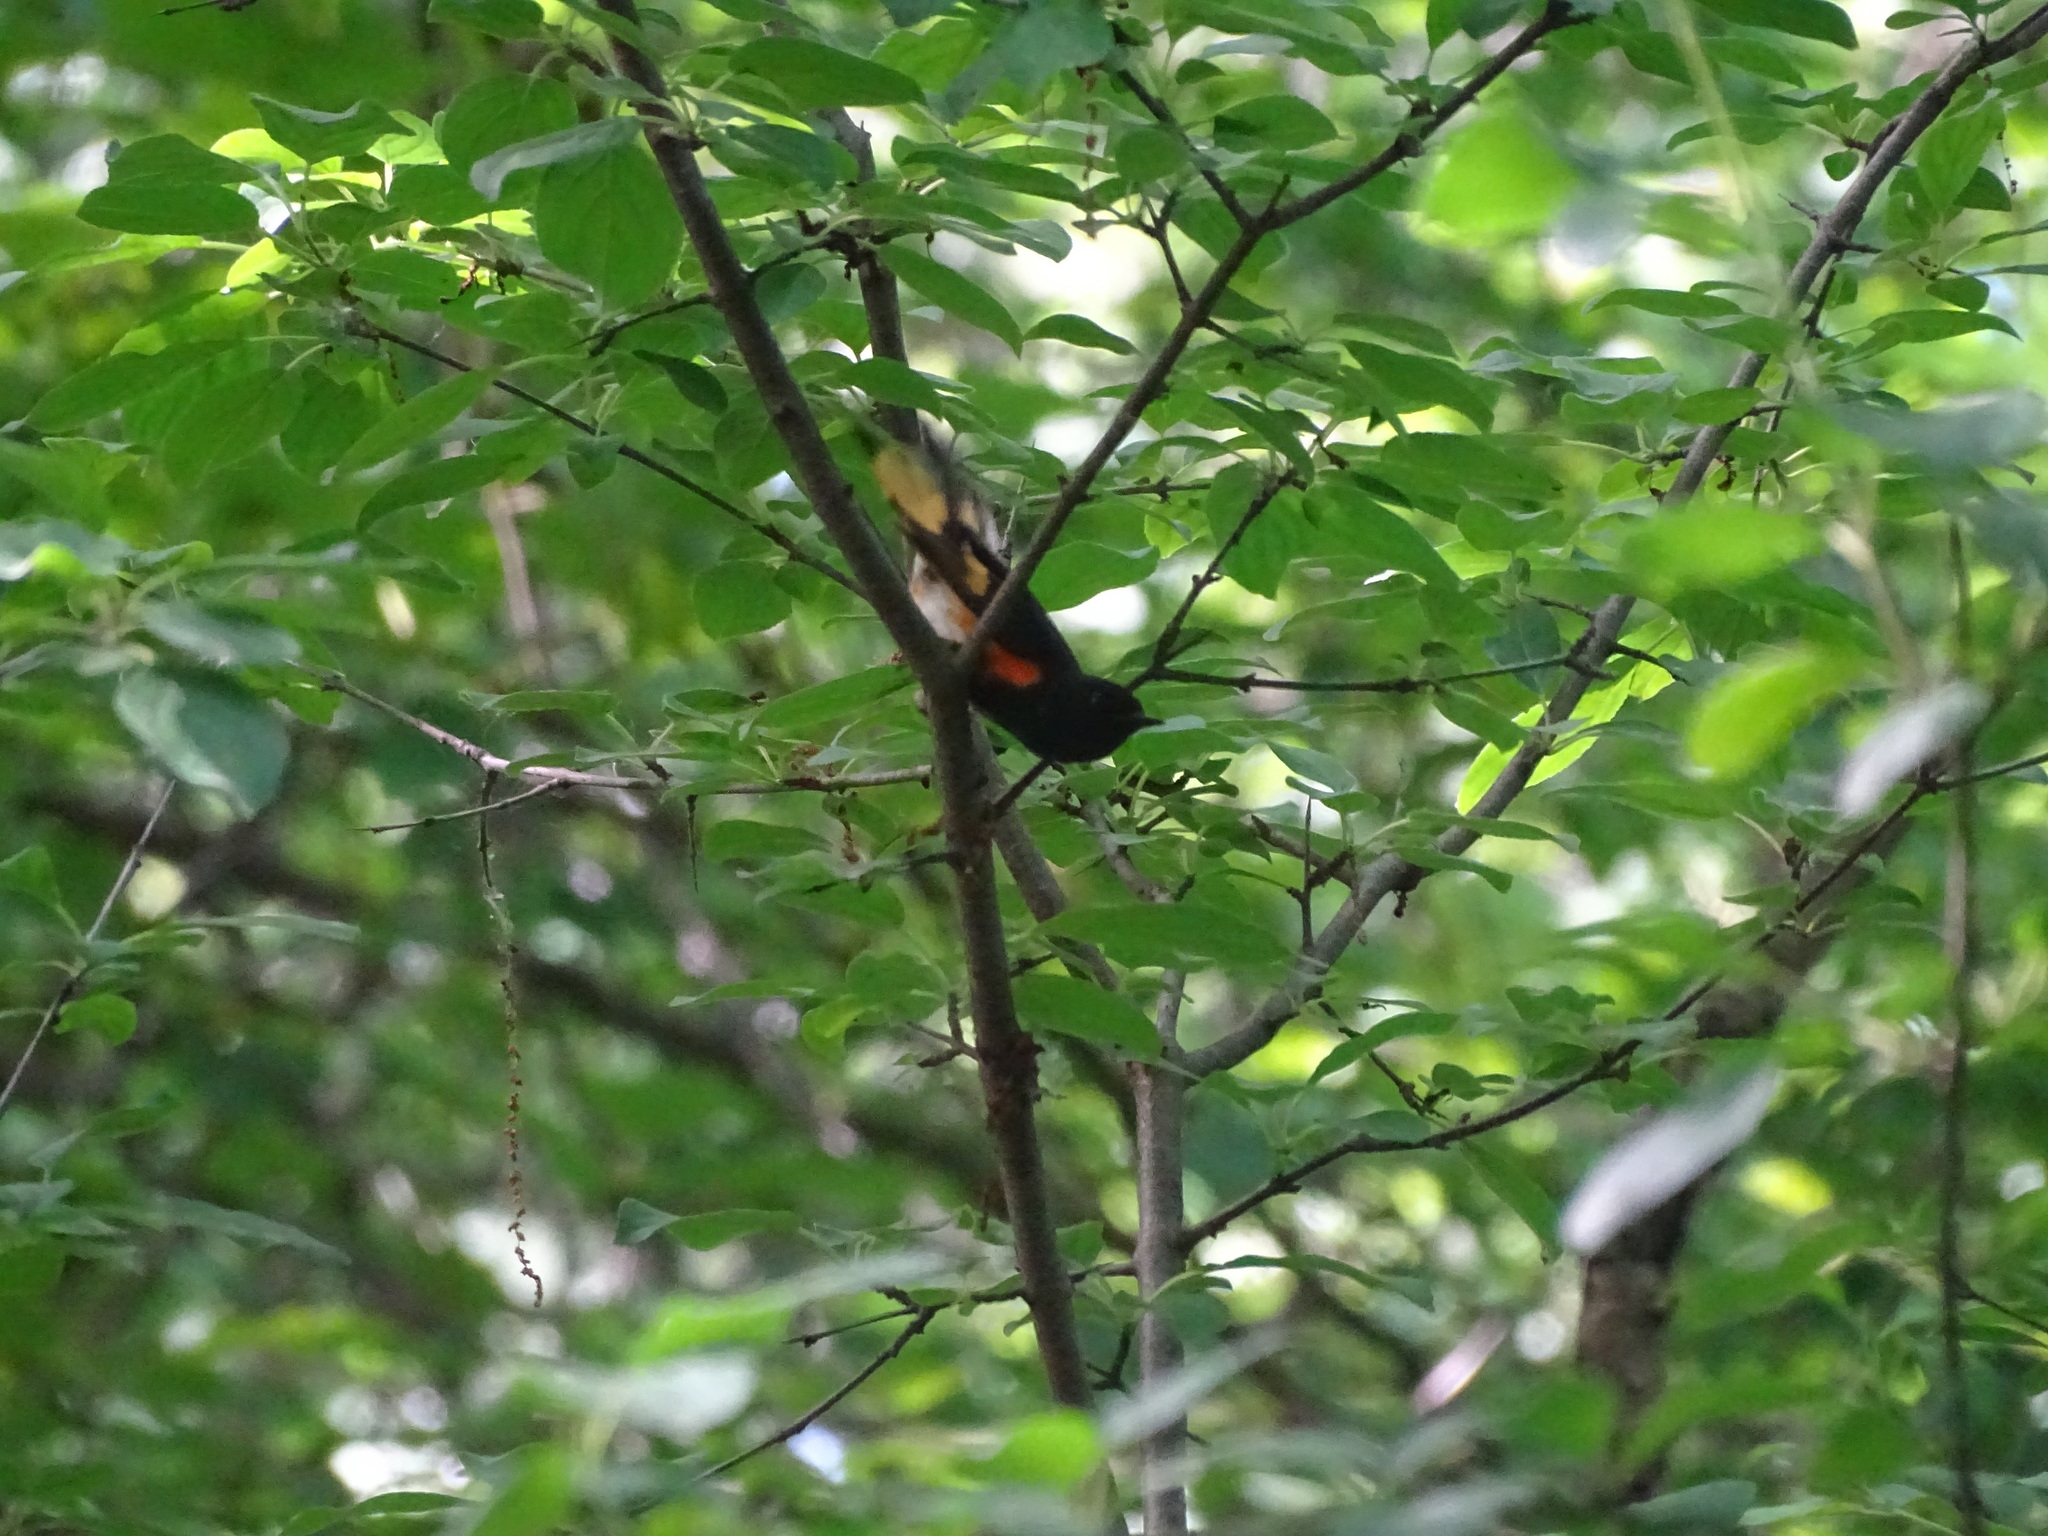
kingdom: Animalia
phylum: Chordata
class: Aves
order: Passeriformes
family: Parulidae
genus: Setophaga
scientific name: Setophaga ruticilla
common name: American redstart
